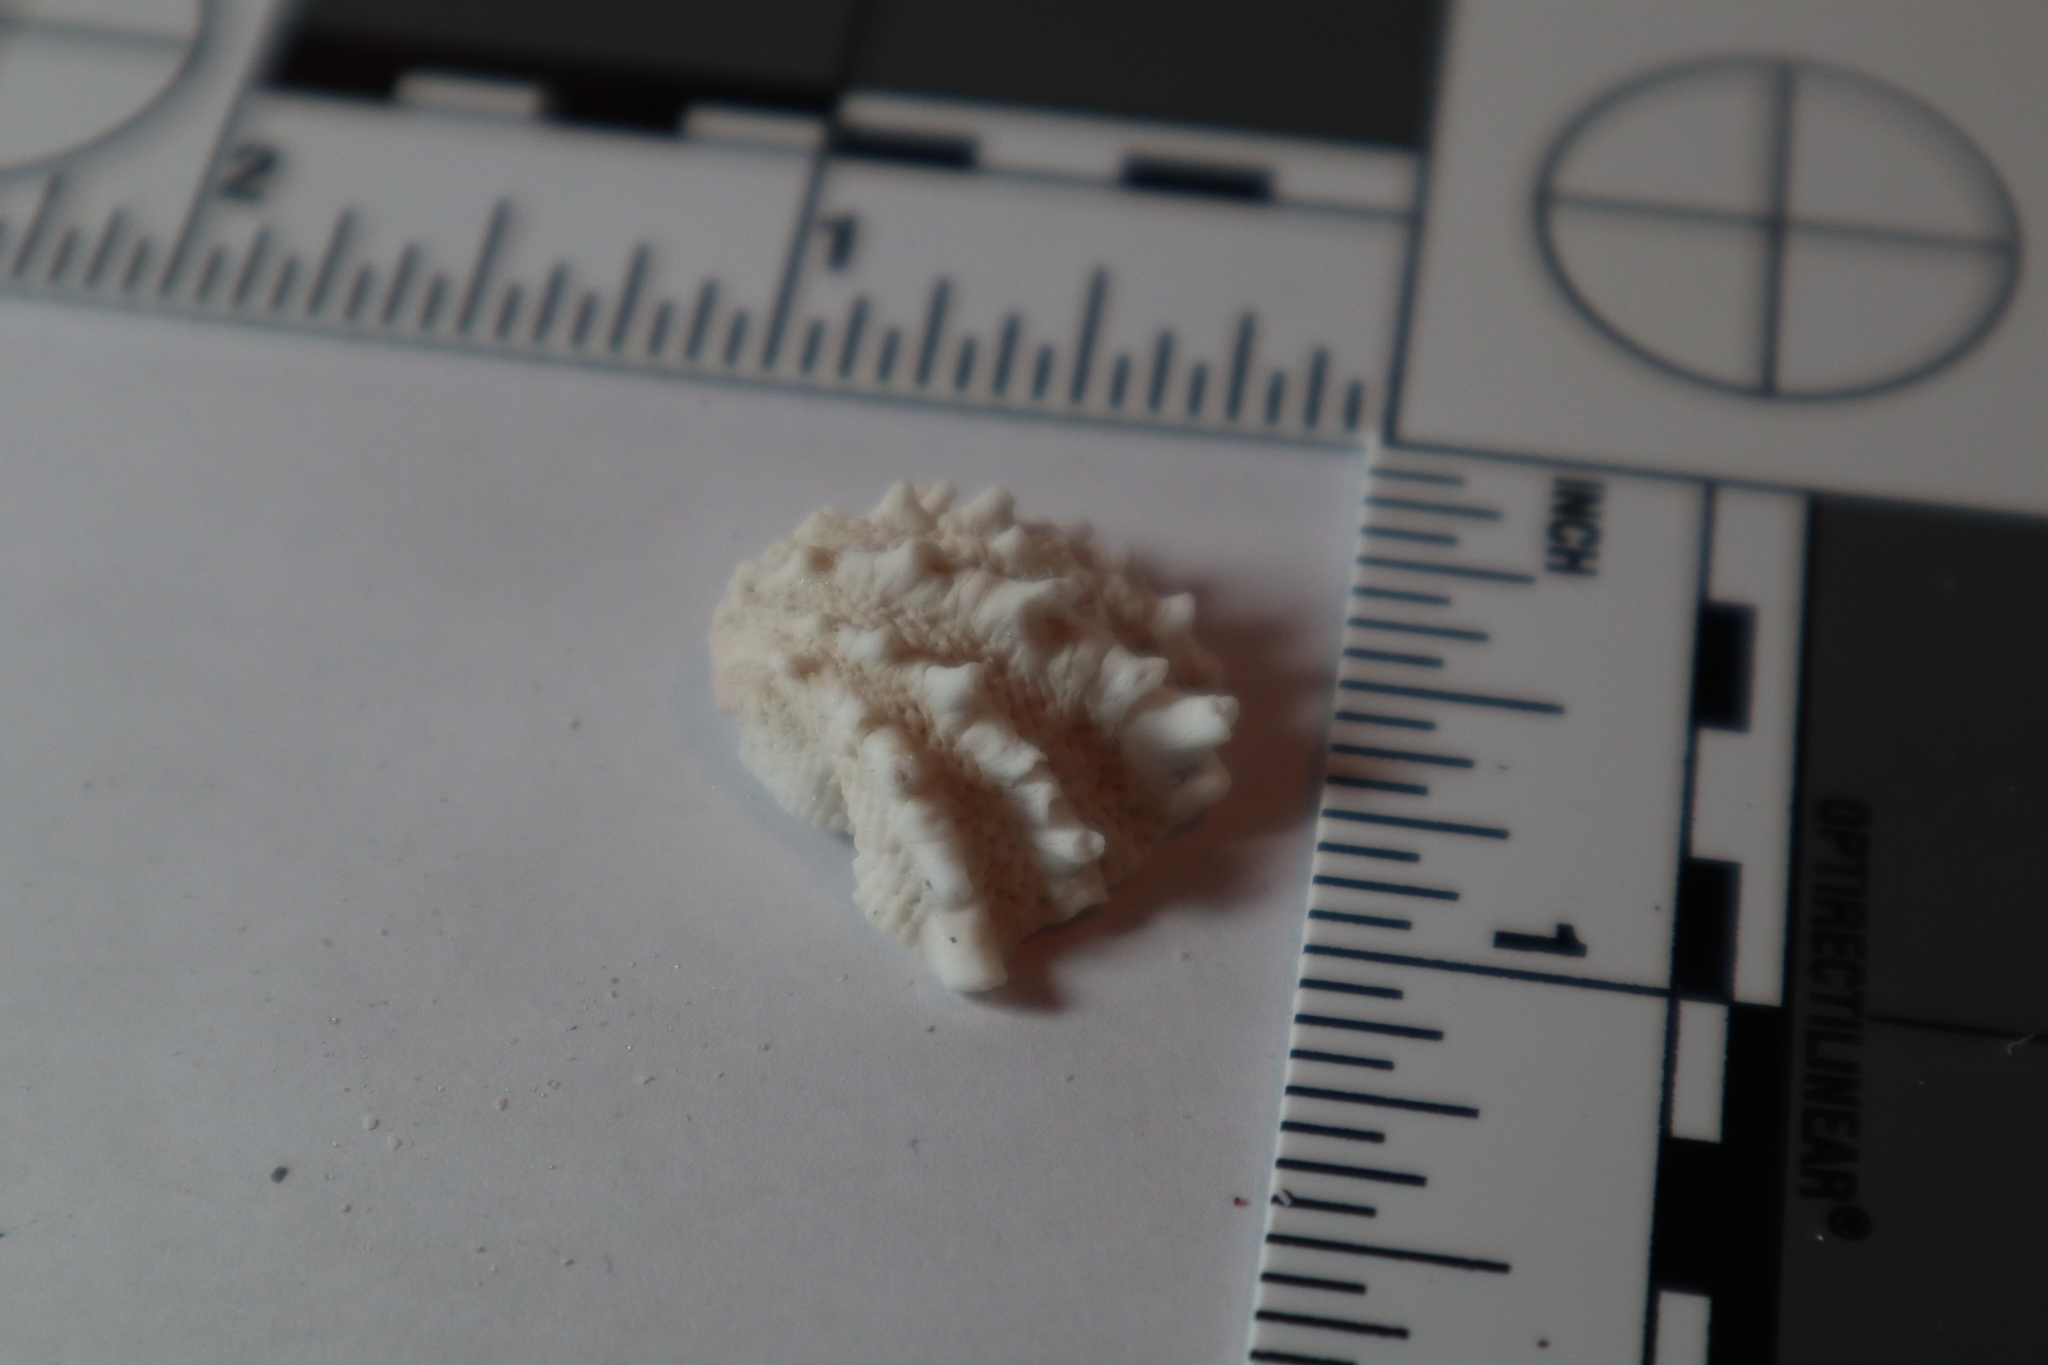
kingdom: Animalia
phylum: Mollusca
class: Bivalvia
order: Venerida
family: Chamidae
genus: Arcinella
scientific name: Arcinella cornuta
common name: Florida spiny jewel box
